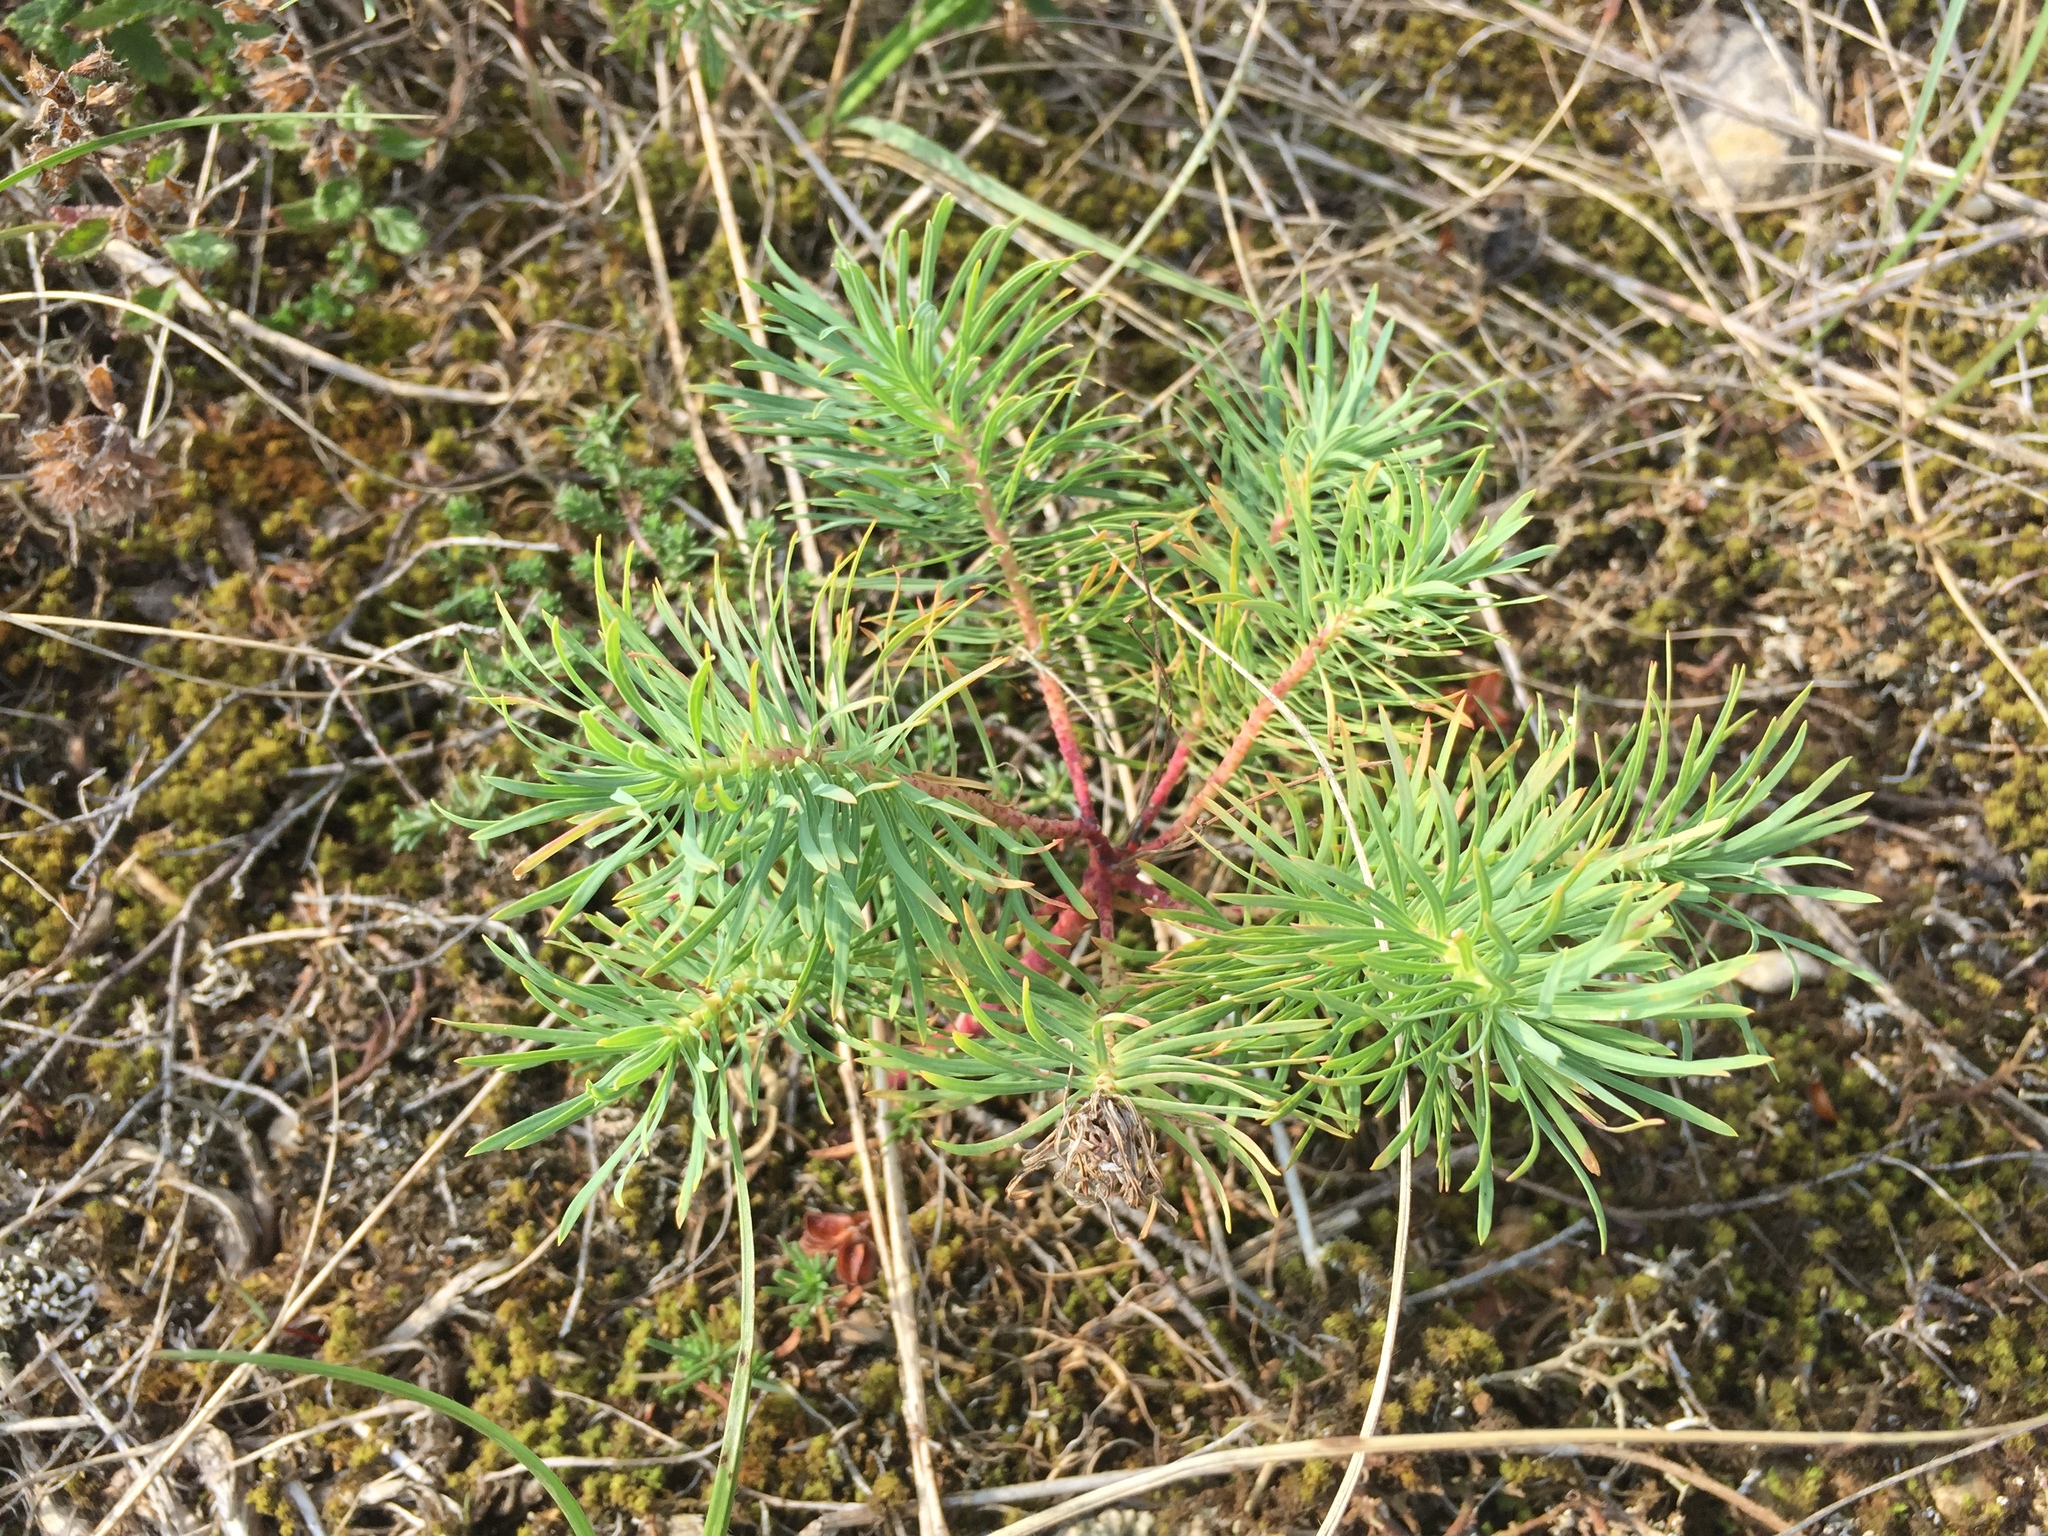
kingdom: Plantae
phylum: Tracheophyta
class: Magnoliopsida
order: Malpighiales
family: Euphorbiaceae
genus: Euphorbia
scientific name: Euphorbia cyparissias
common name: Cypress spurge
